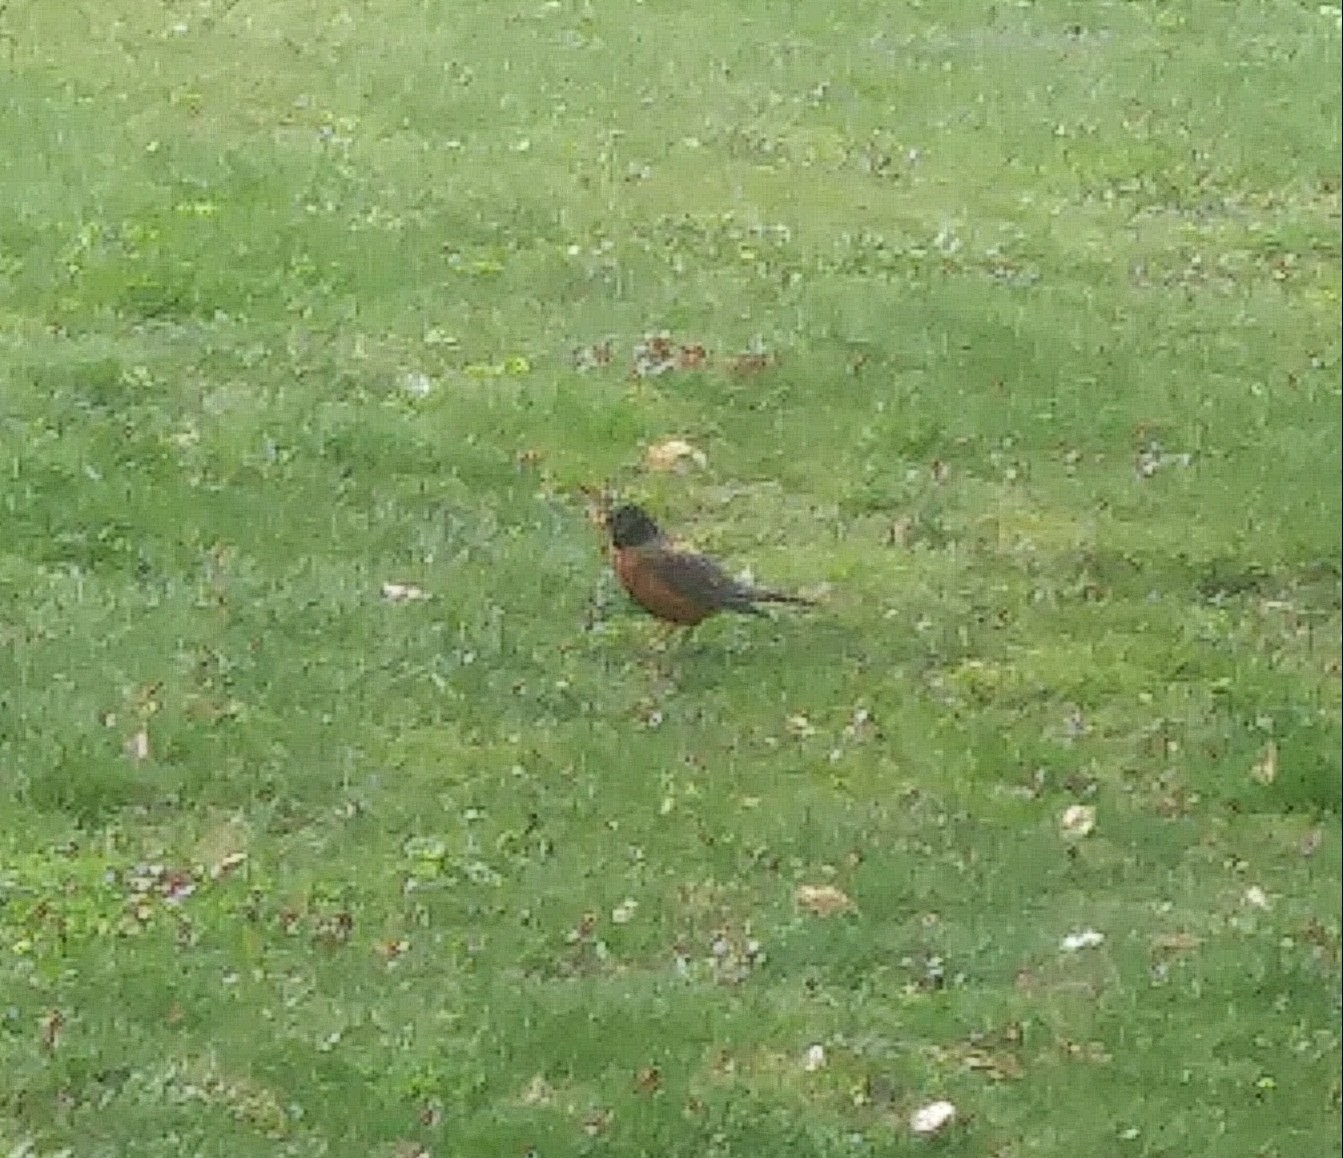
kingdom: Animalia
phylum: Chordata
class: Aves
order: Passeriformes
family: Turdidae
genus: Turdus
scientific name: Turdus migratorius
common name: American robin
